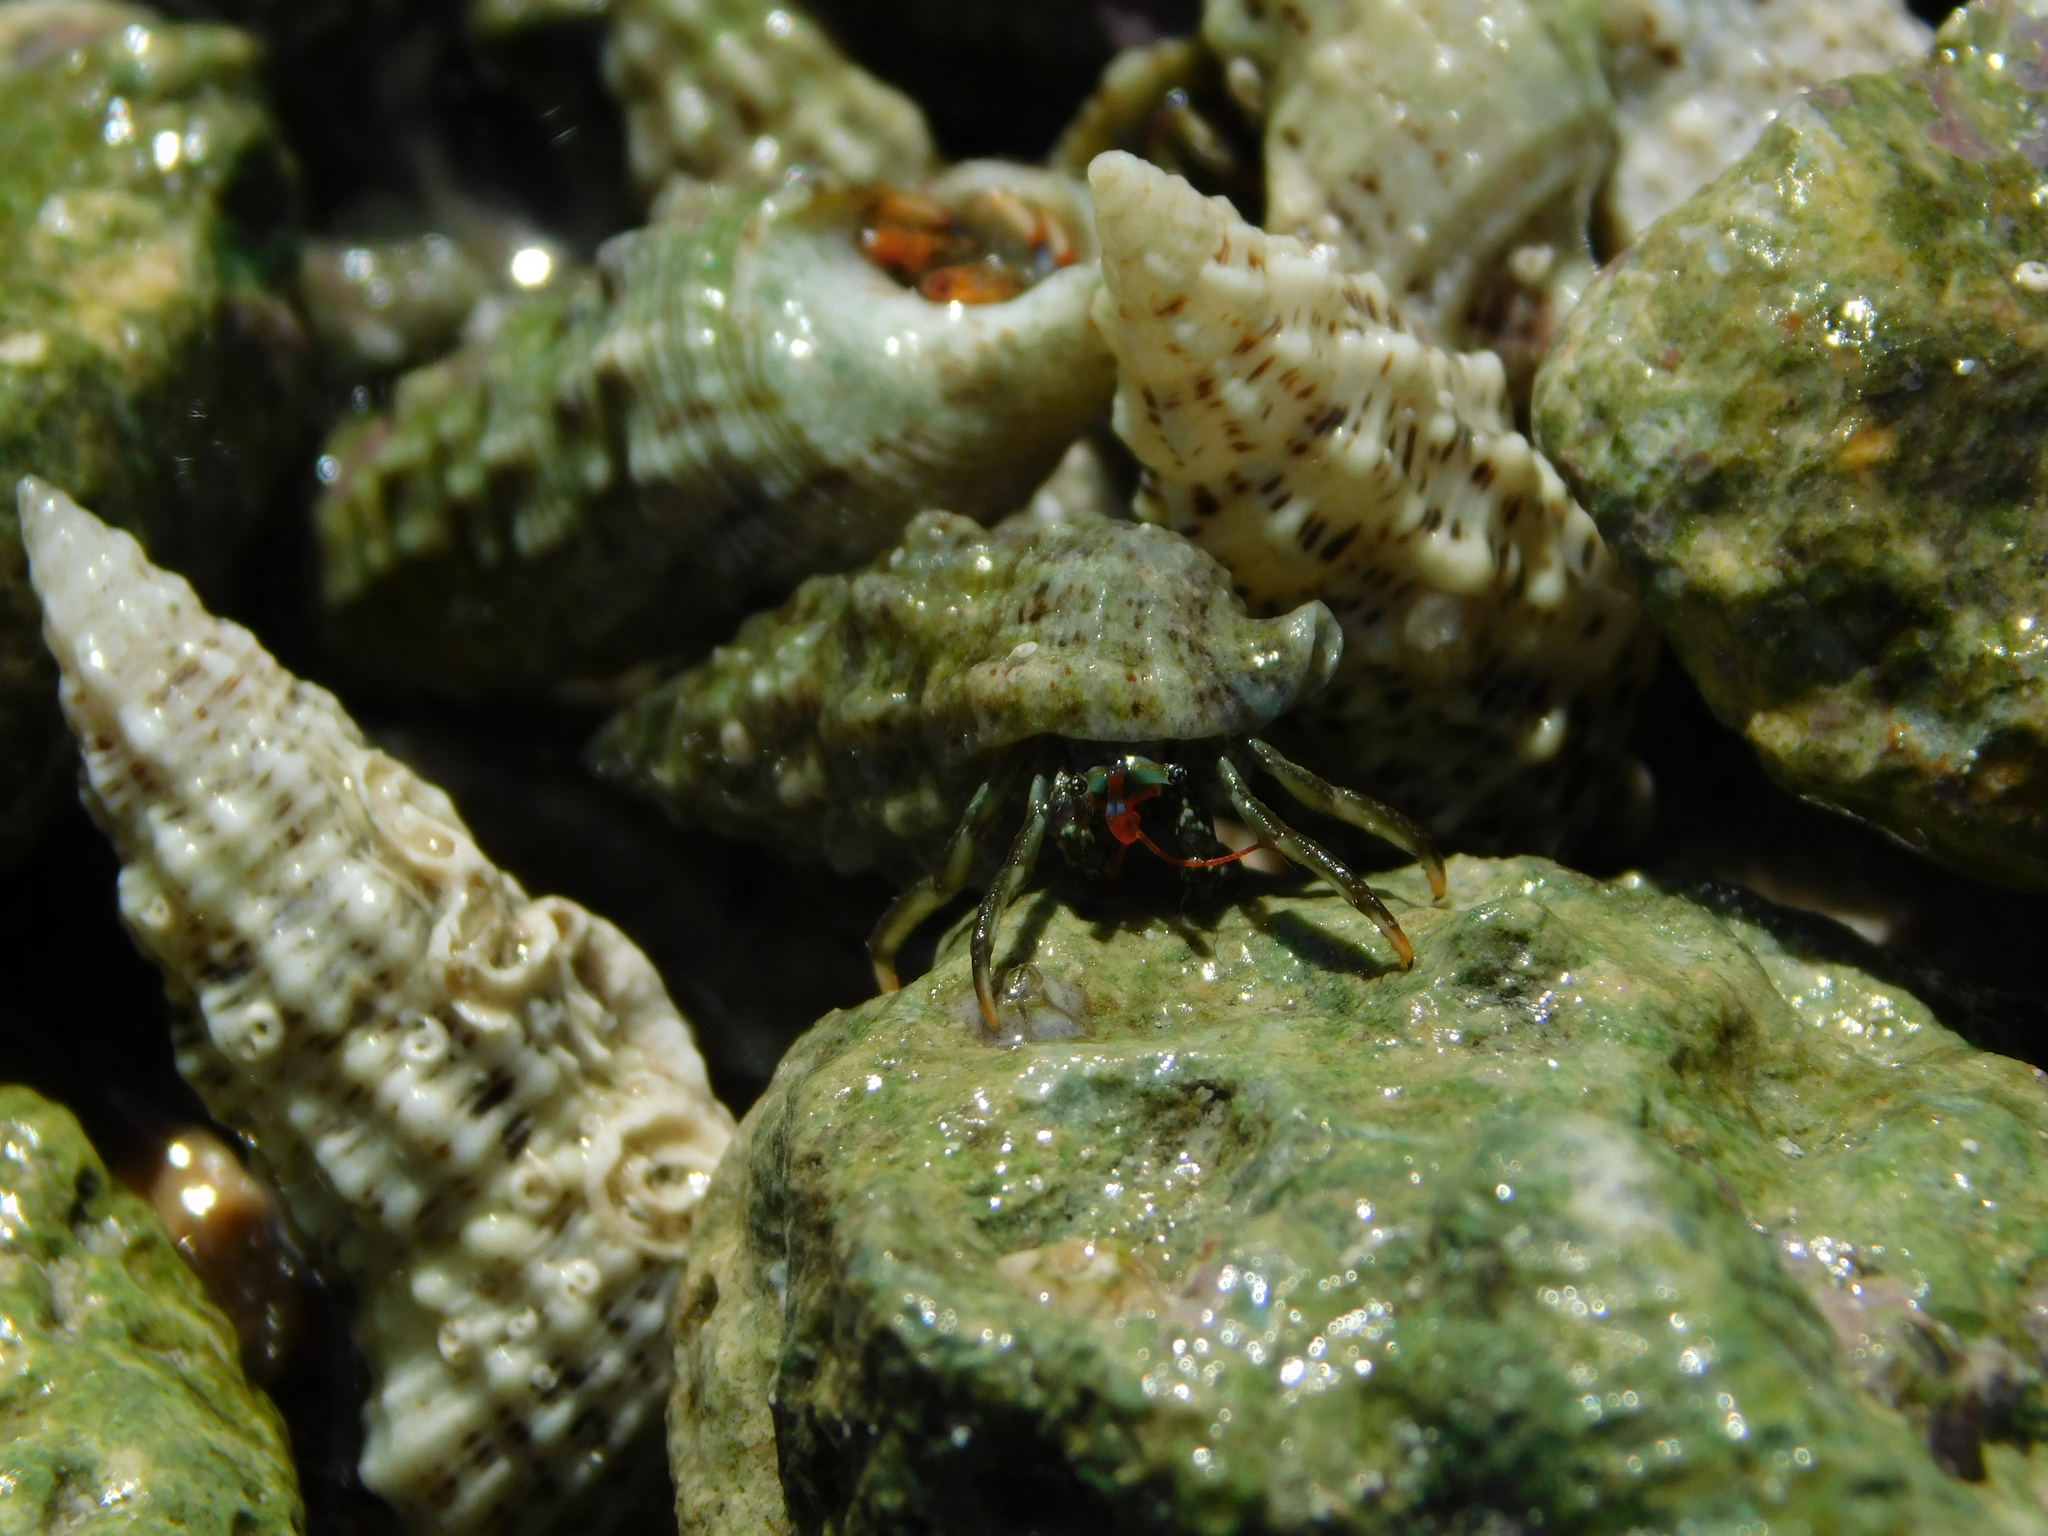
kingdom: Animalia
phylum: Arthropoda
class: Malacostraca
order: Decapoda
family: Diogenidae
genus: Clibanarius
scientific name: Clibanarius brasiliensis
